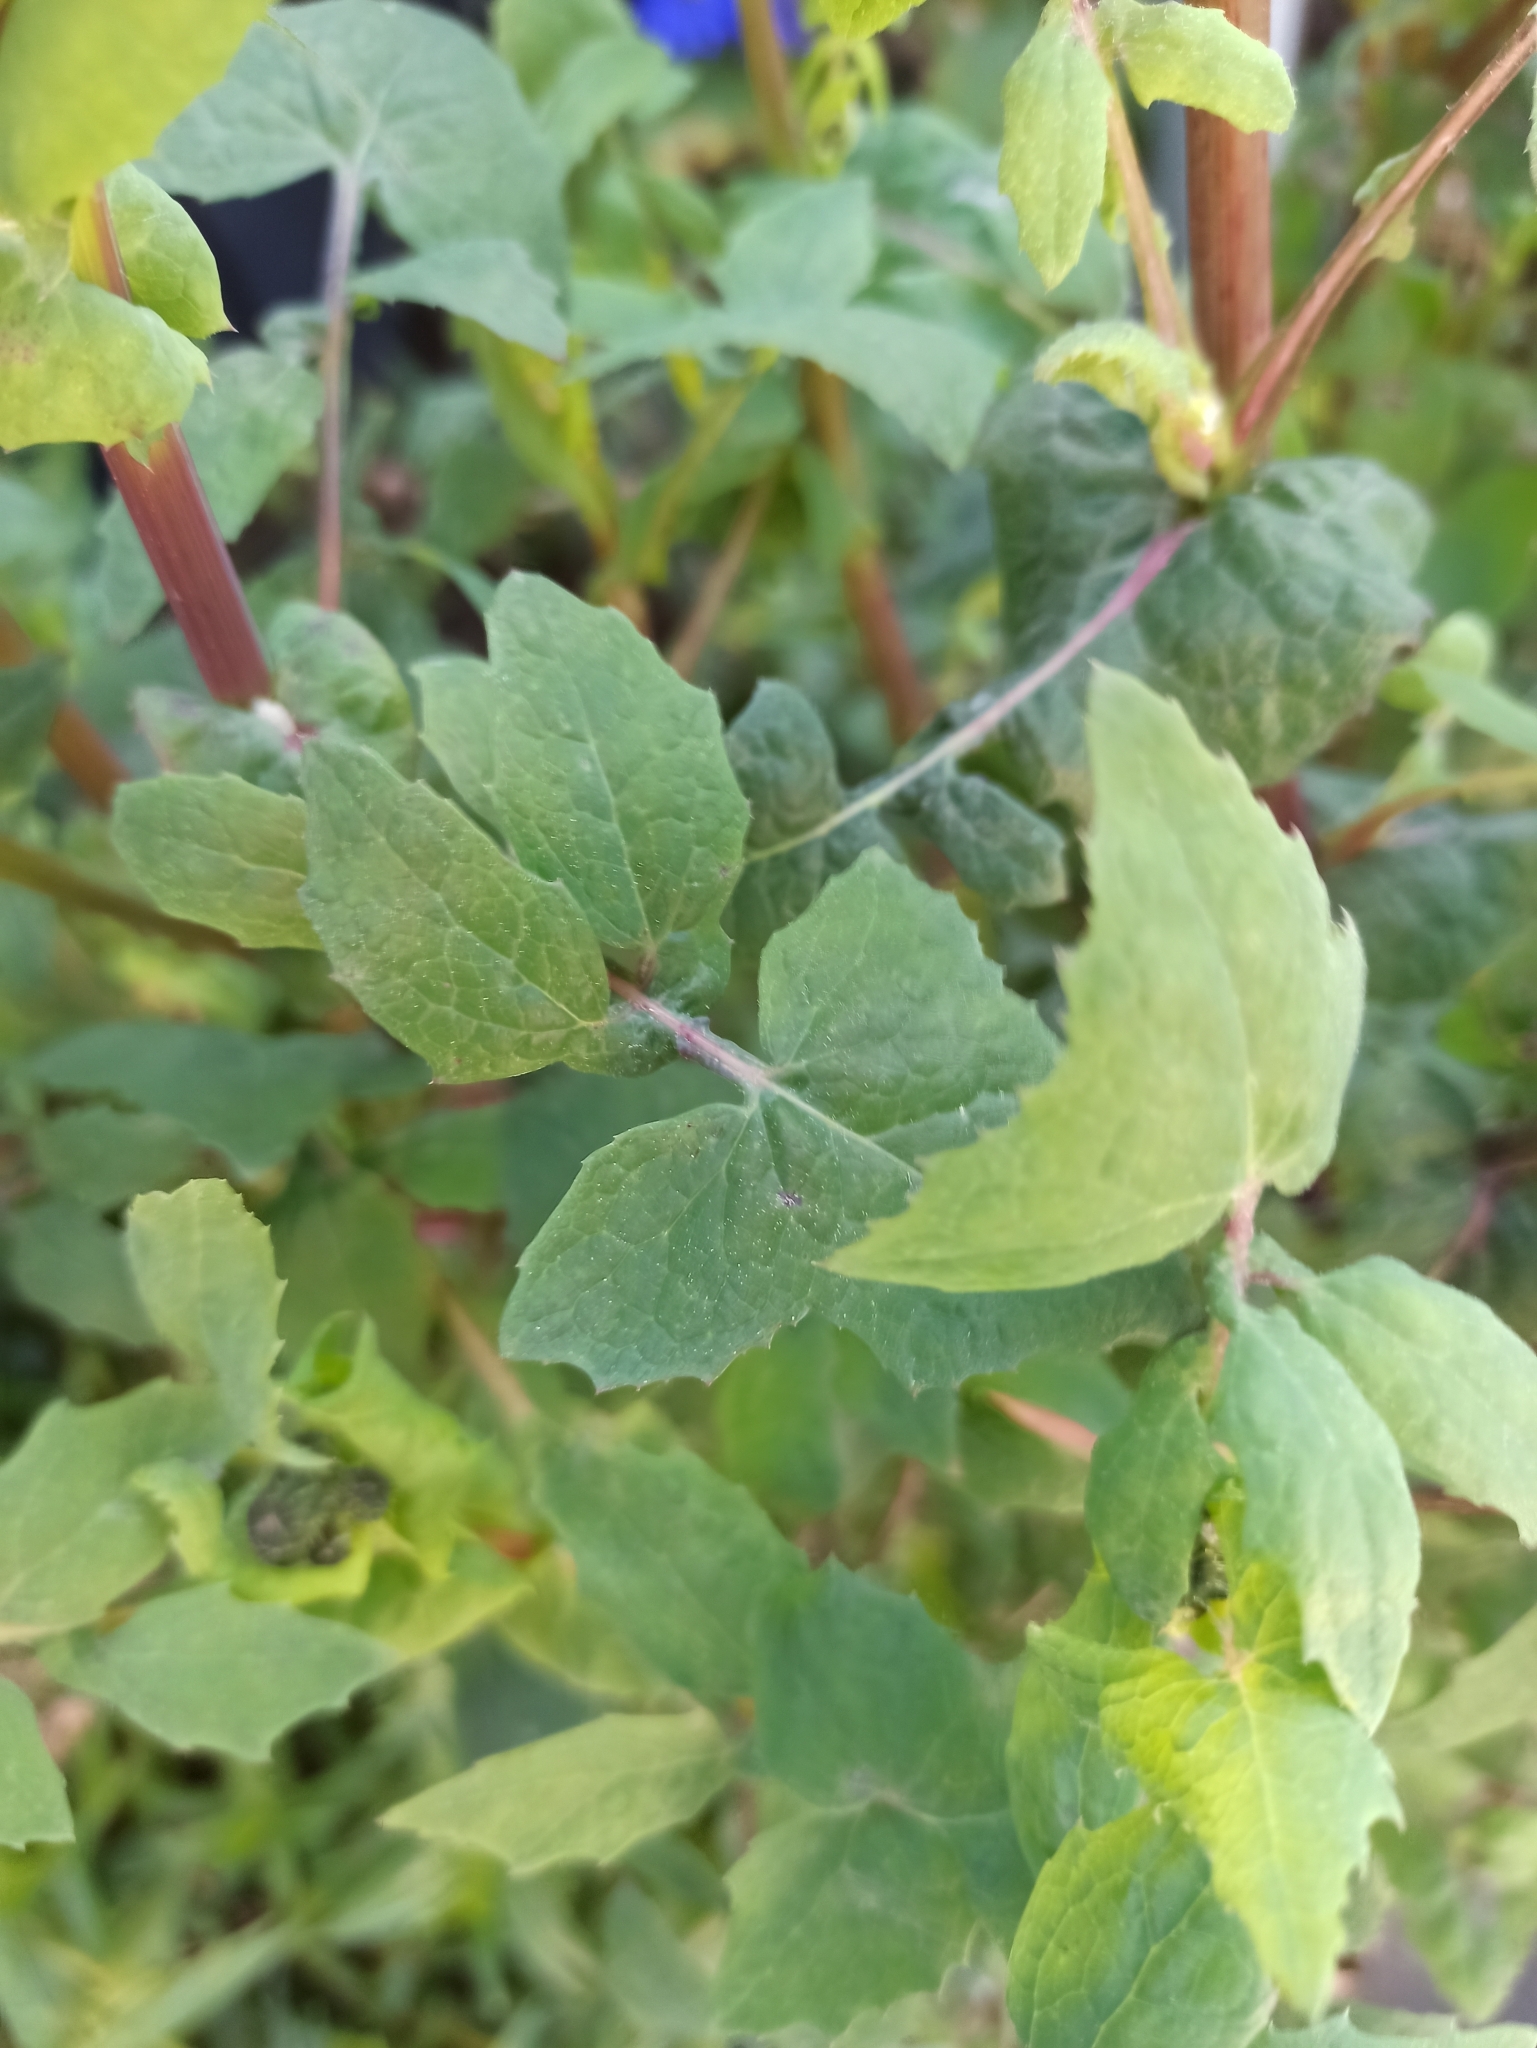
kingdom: Plantae
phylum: Tracheophyta
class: Magnoliopsida
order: Asterales
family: Asteraceae
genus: Sonchus
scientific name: Sonchus oleraceus
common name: Common sowthistle
